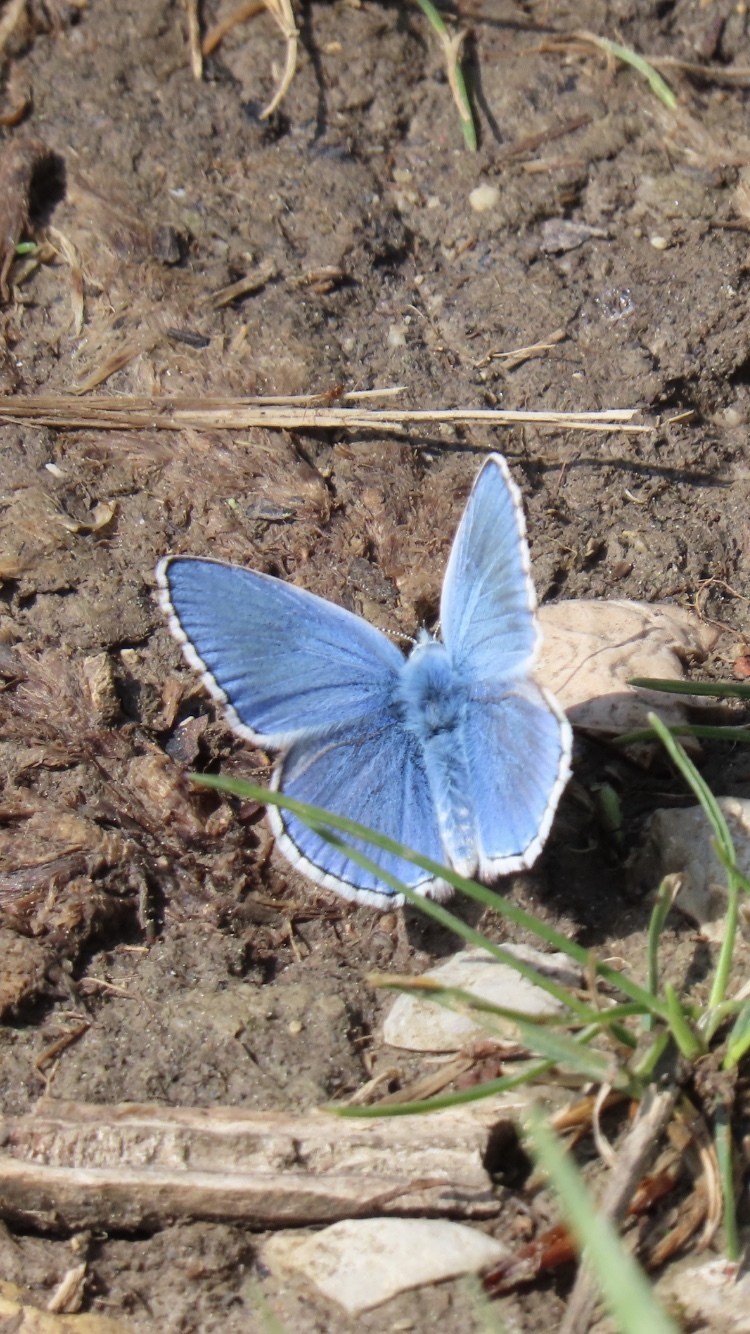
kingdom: Animalia
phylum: Arthropoda
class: Insecta
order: Lepidoptera
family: Lycaenidae
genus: Lysandra
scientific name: Lysandra bellargus
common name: Adonis blue
